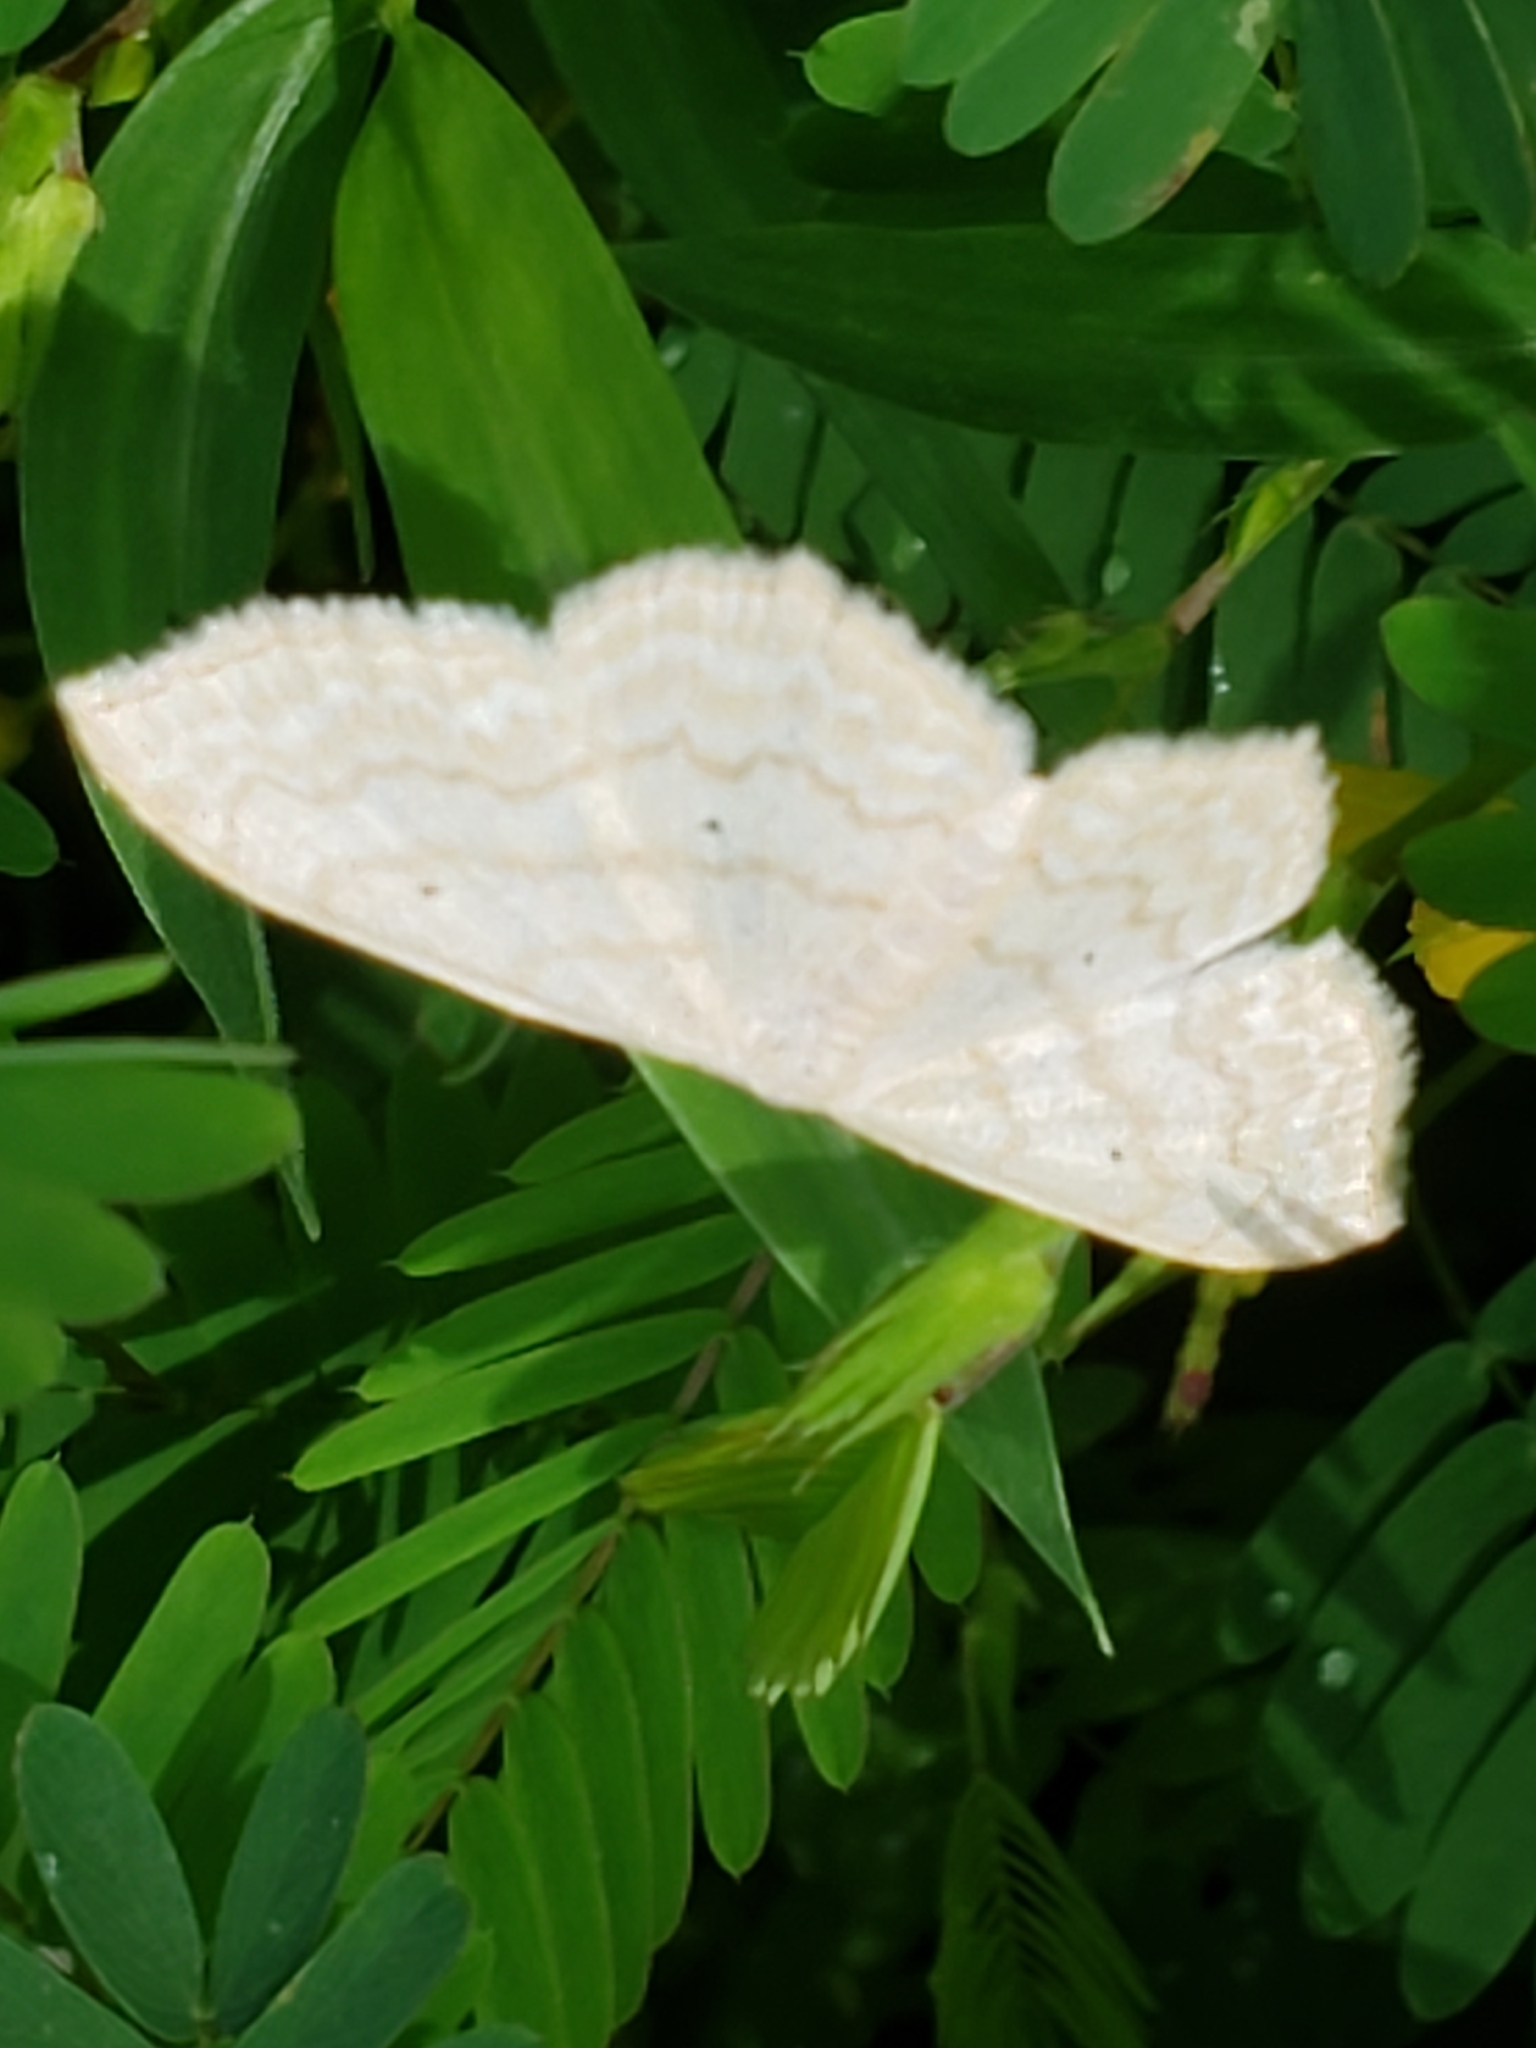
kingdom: Animalia
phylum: Arthropoda
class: Insecta
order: Lepidoptera
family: Geometridae
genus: Scopula
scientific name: Scopula limboundata
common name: Large lace border
